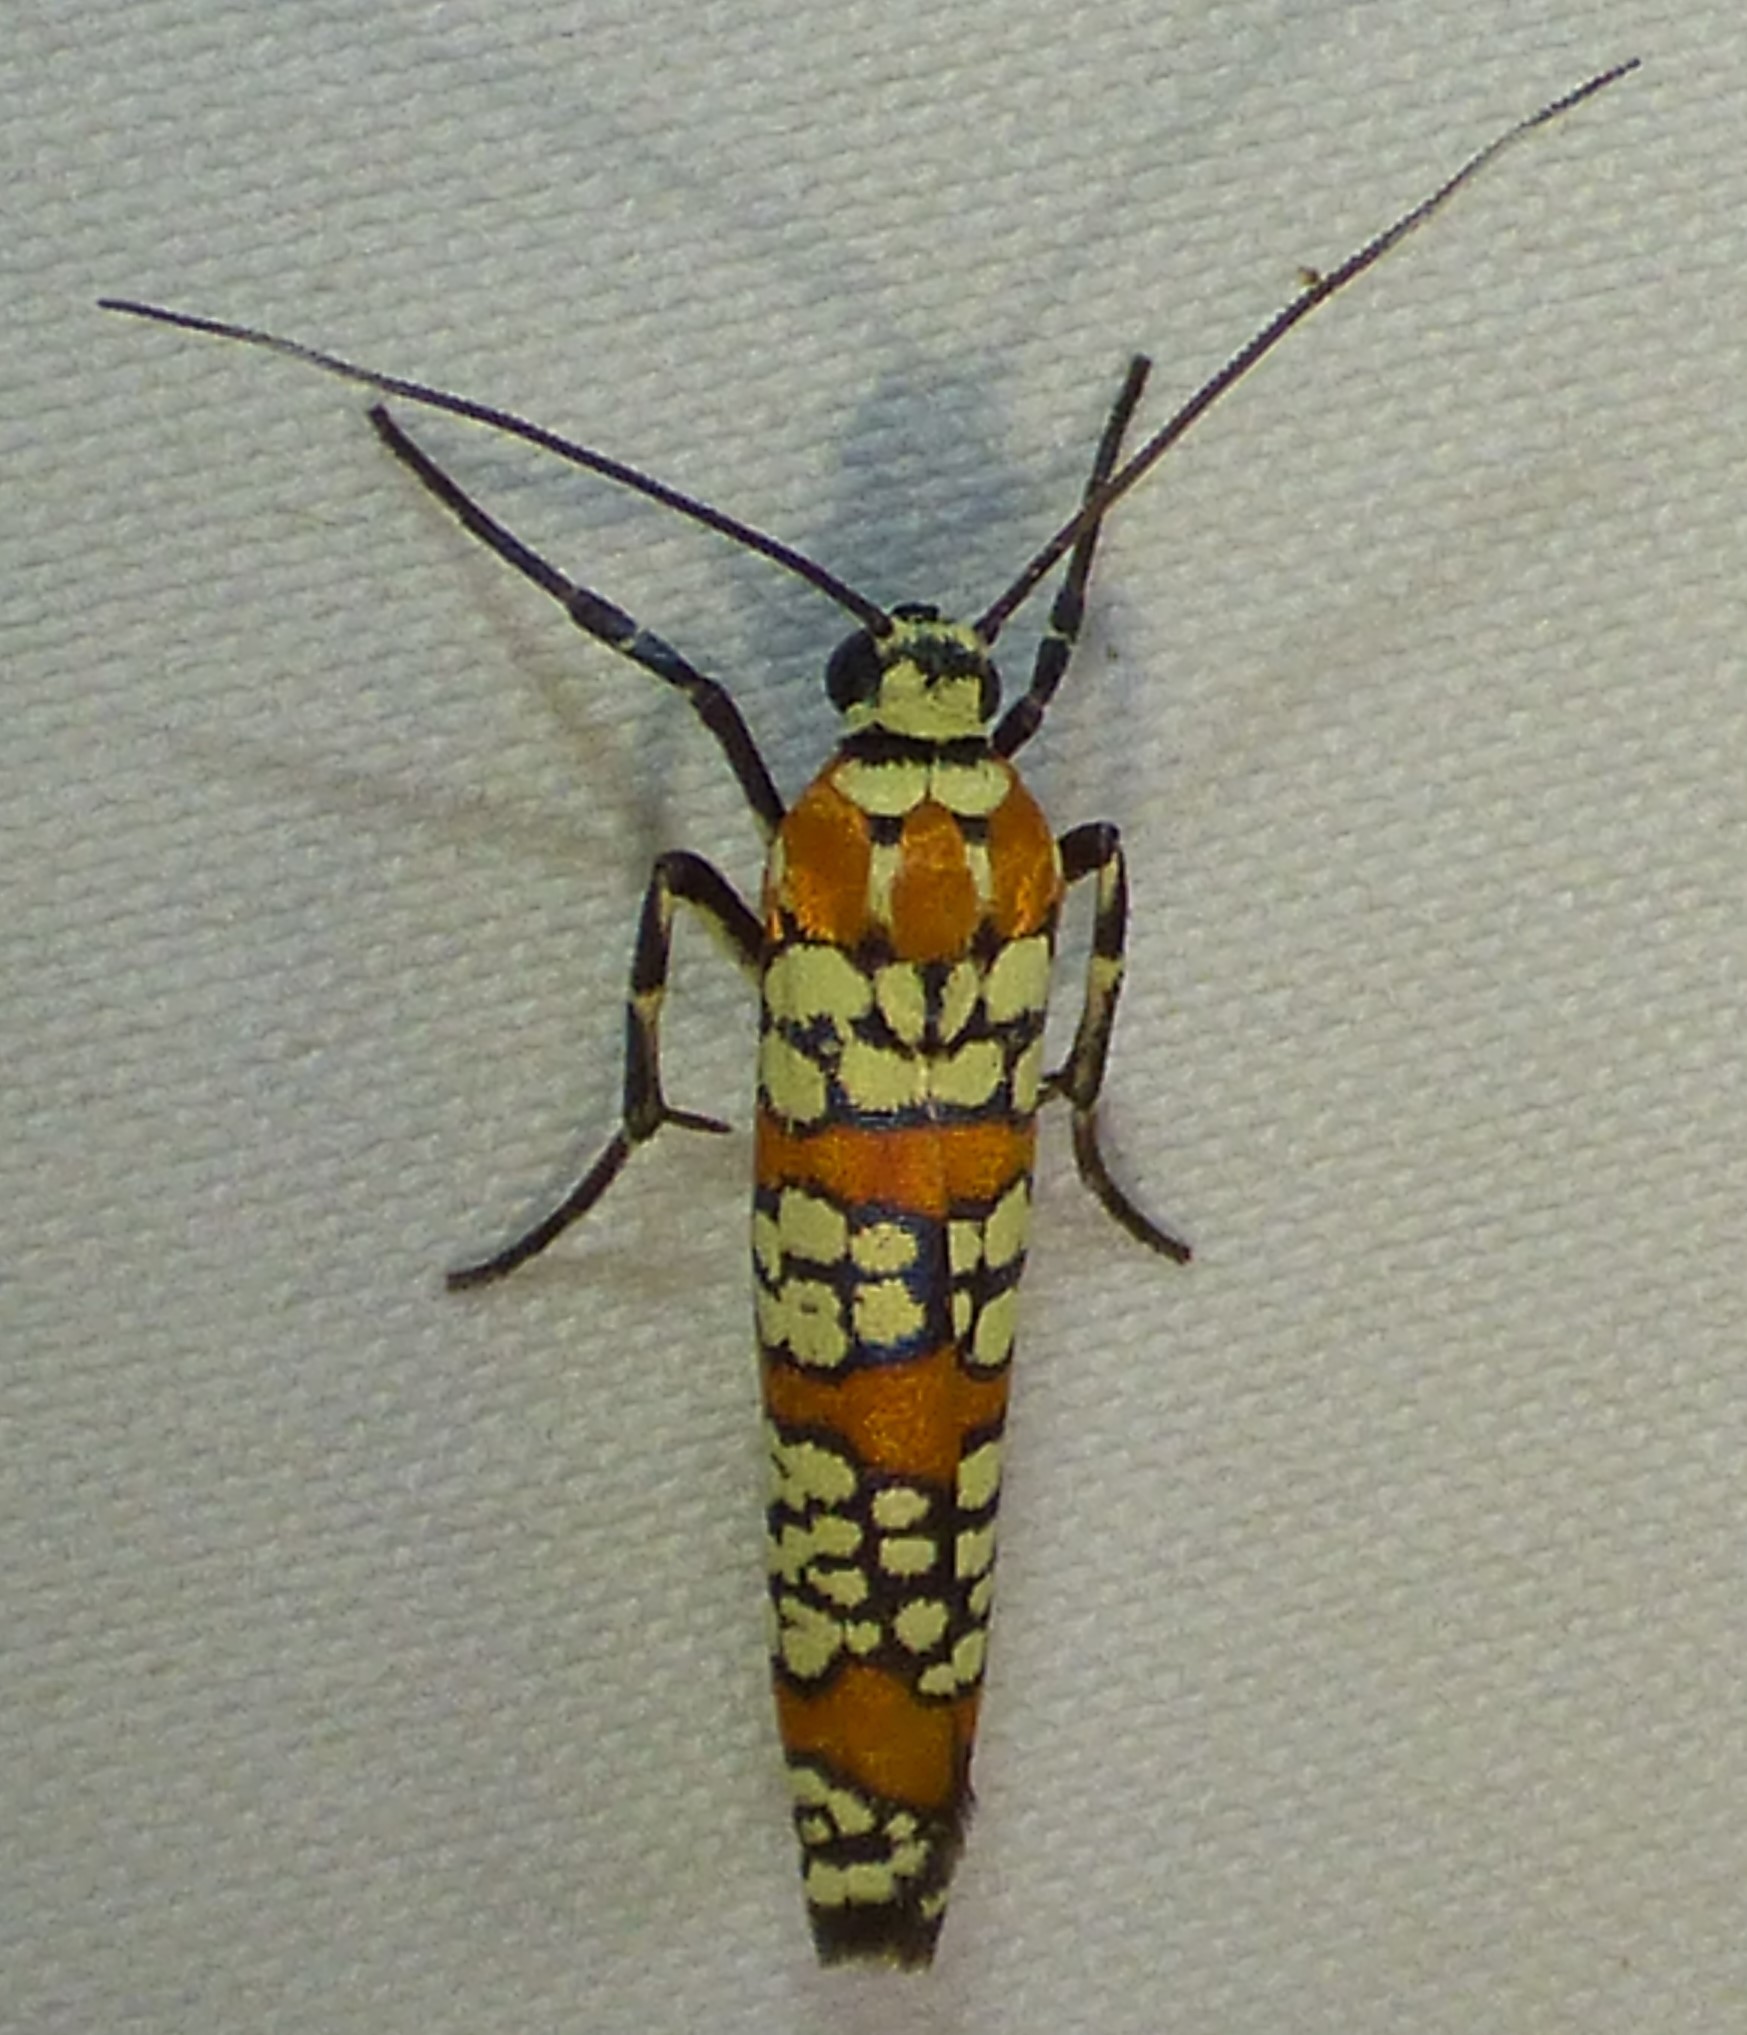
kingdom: Animalia
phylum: Arthropoda
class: Insecta
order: Lepidoptera
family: Attevidae
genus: Atteva
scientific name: Atteva punctella
